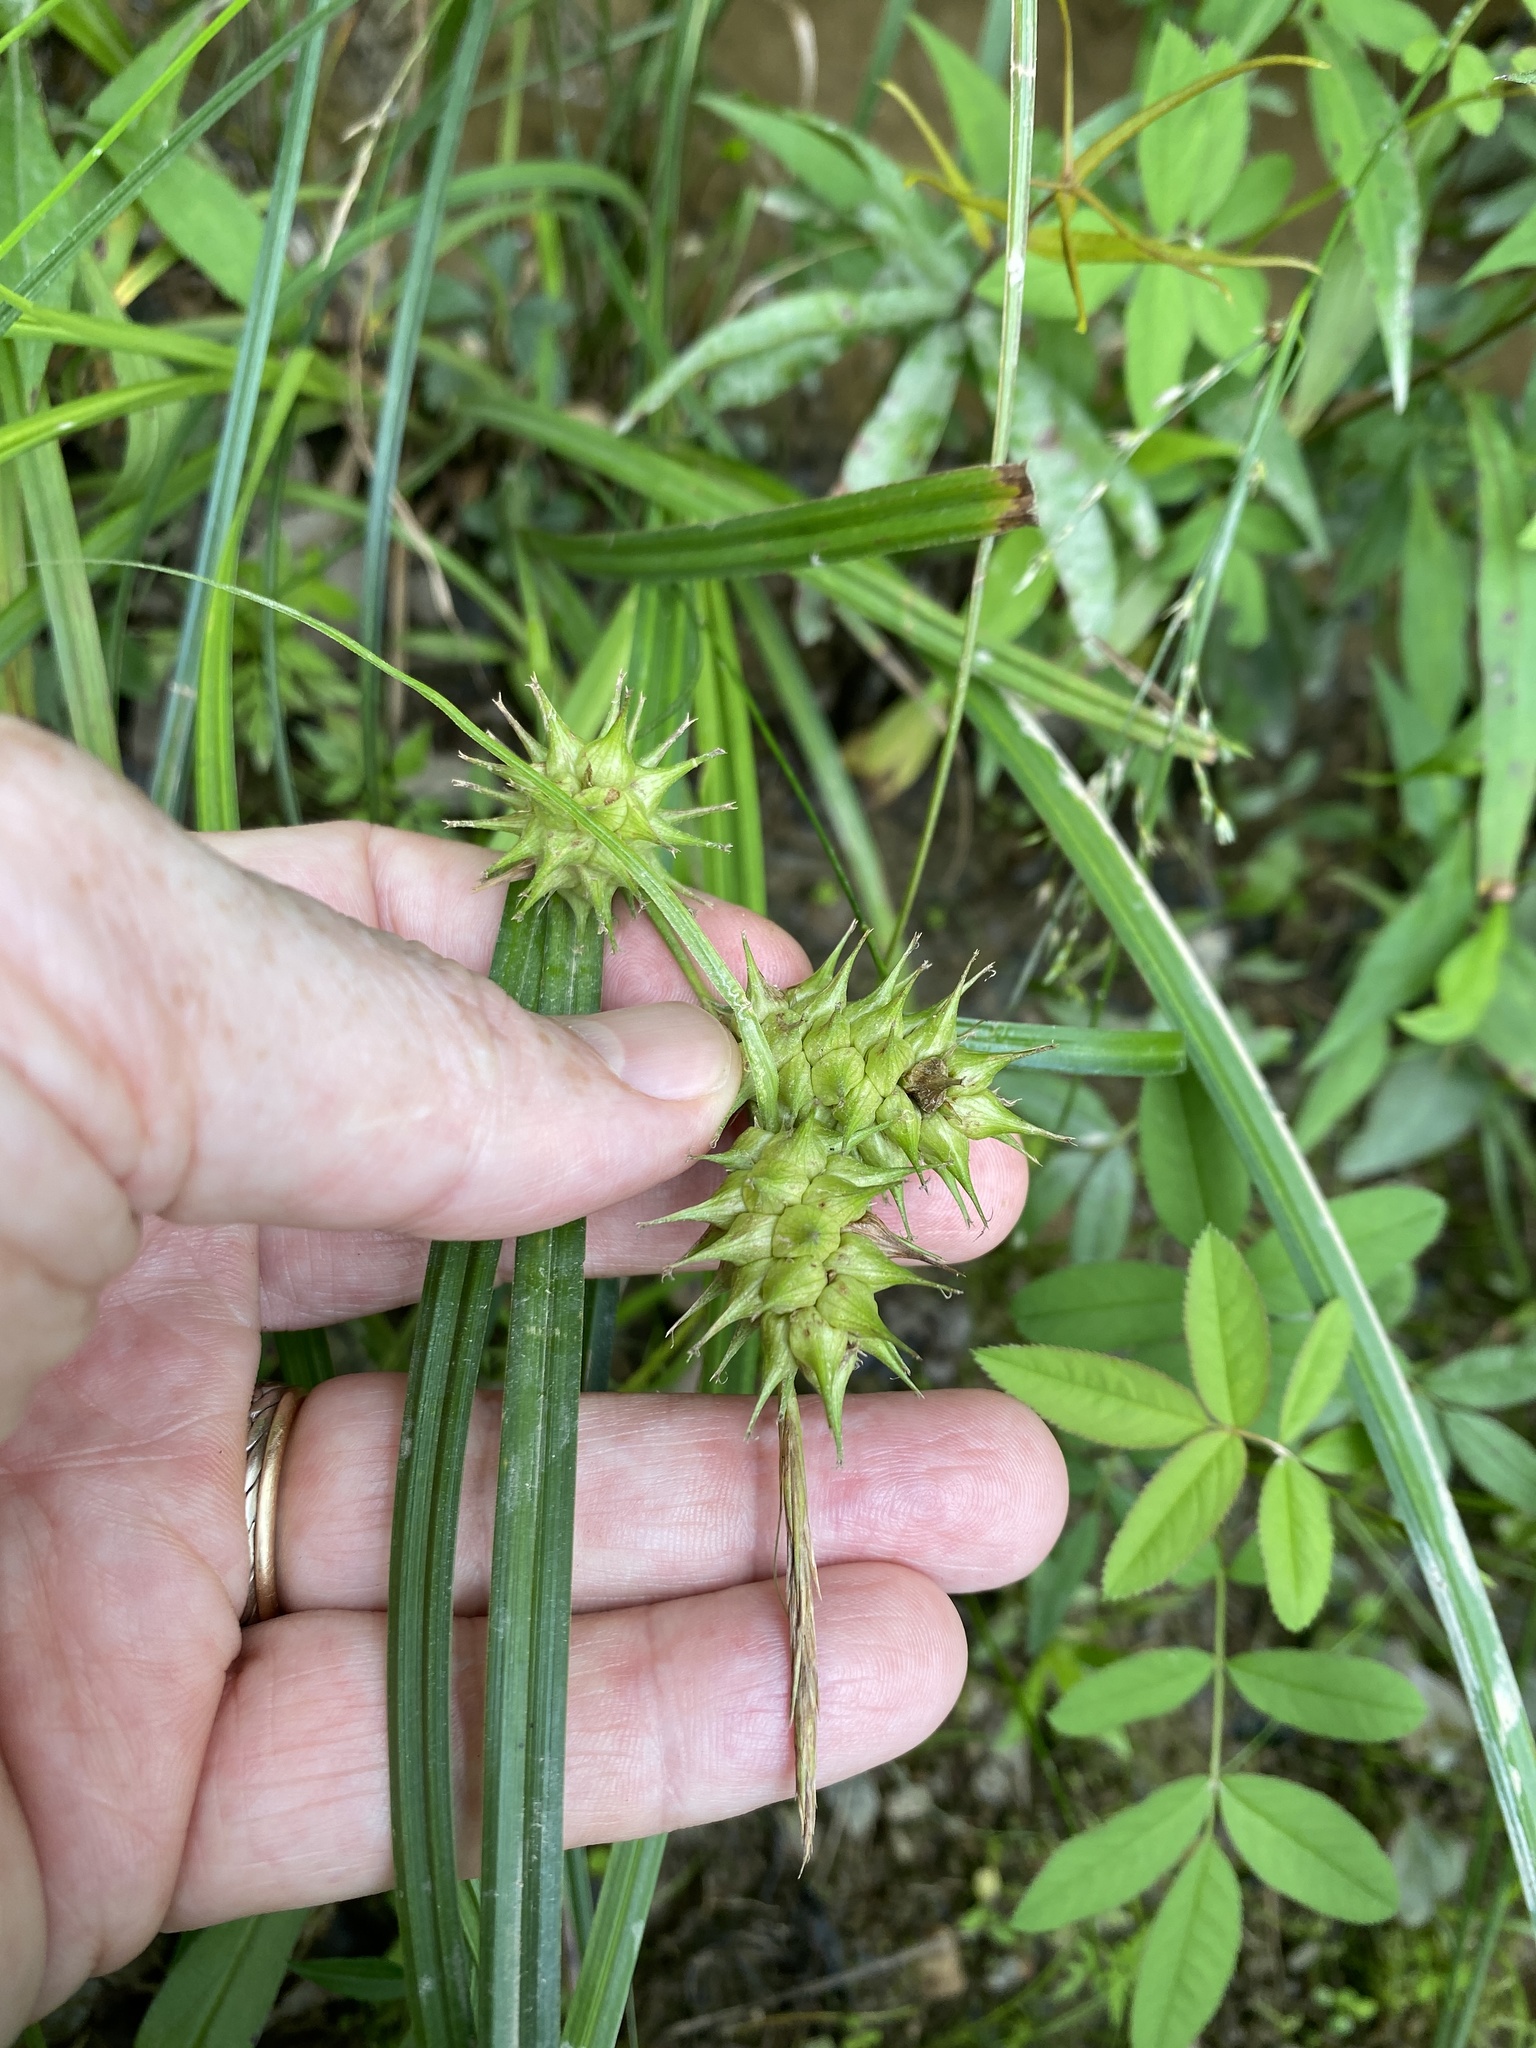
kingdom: Plantae
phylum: Tracheophyta
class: Liliopsida
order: Poales
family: Cyperaceae
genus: Carex
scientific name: Carex lupulina
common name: Hop sedge
